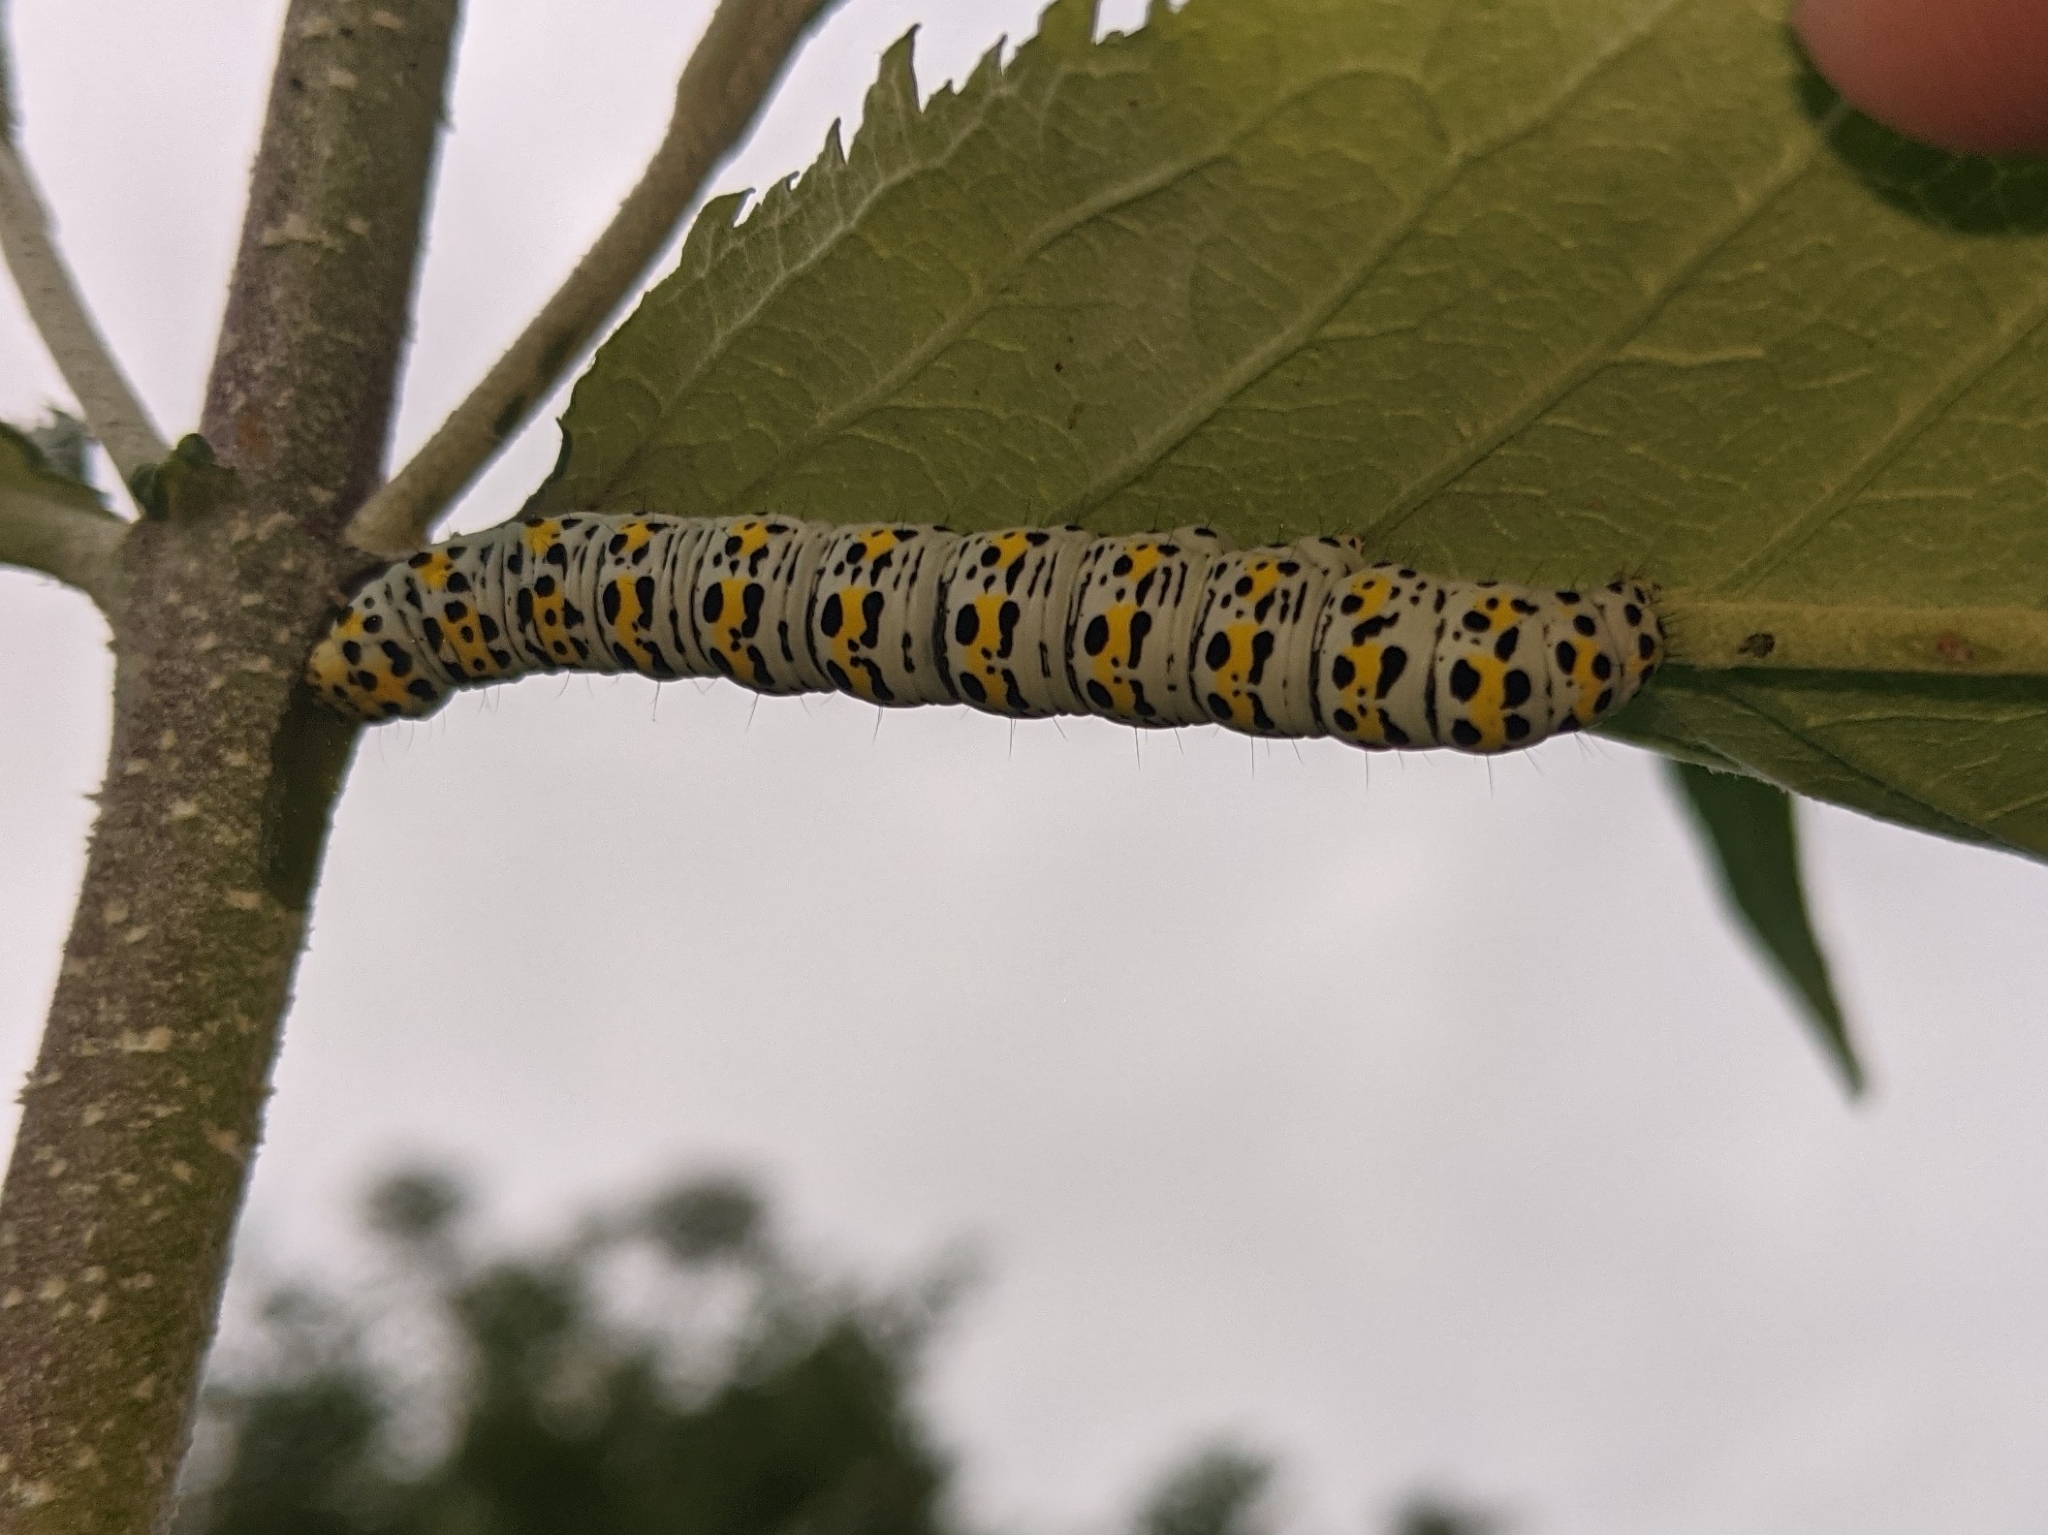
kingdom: Animalia
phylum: Arthropoda
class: Insecta
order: Lepidoptera
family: Noctuidae
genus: Cucullia
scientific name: Cucullia verbasci
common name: Mullein
